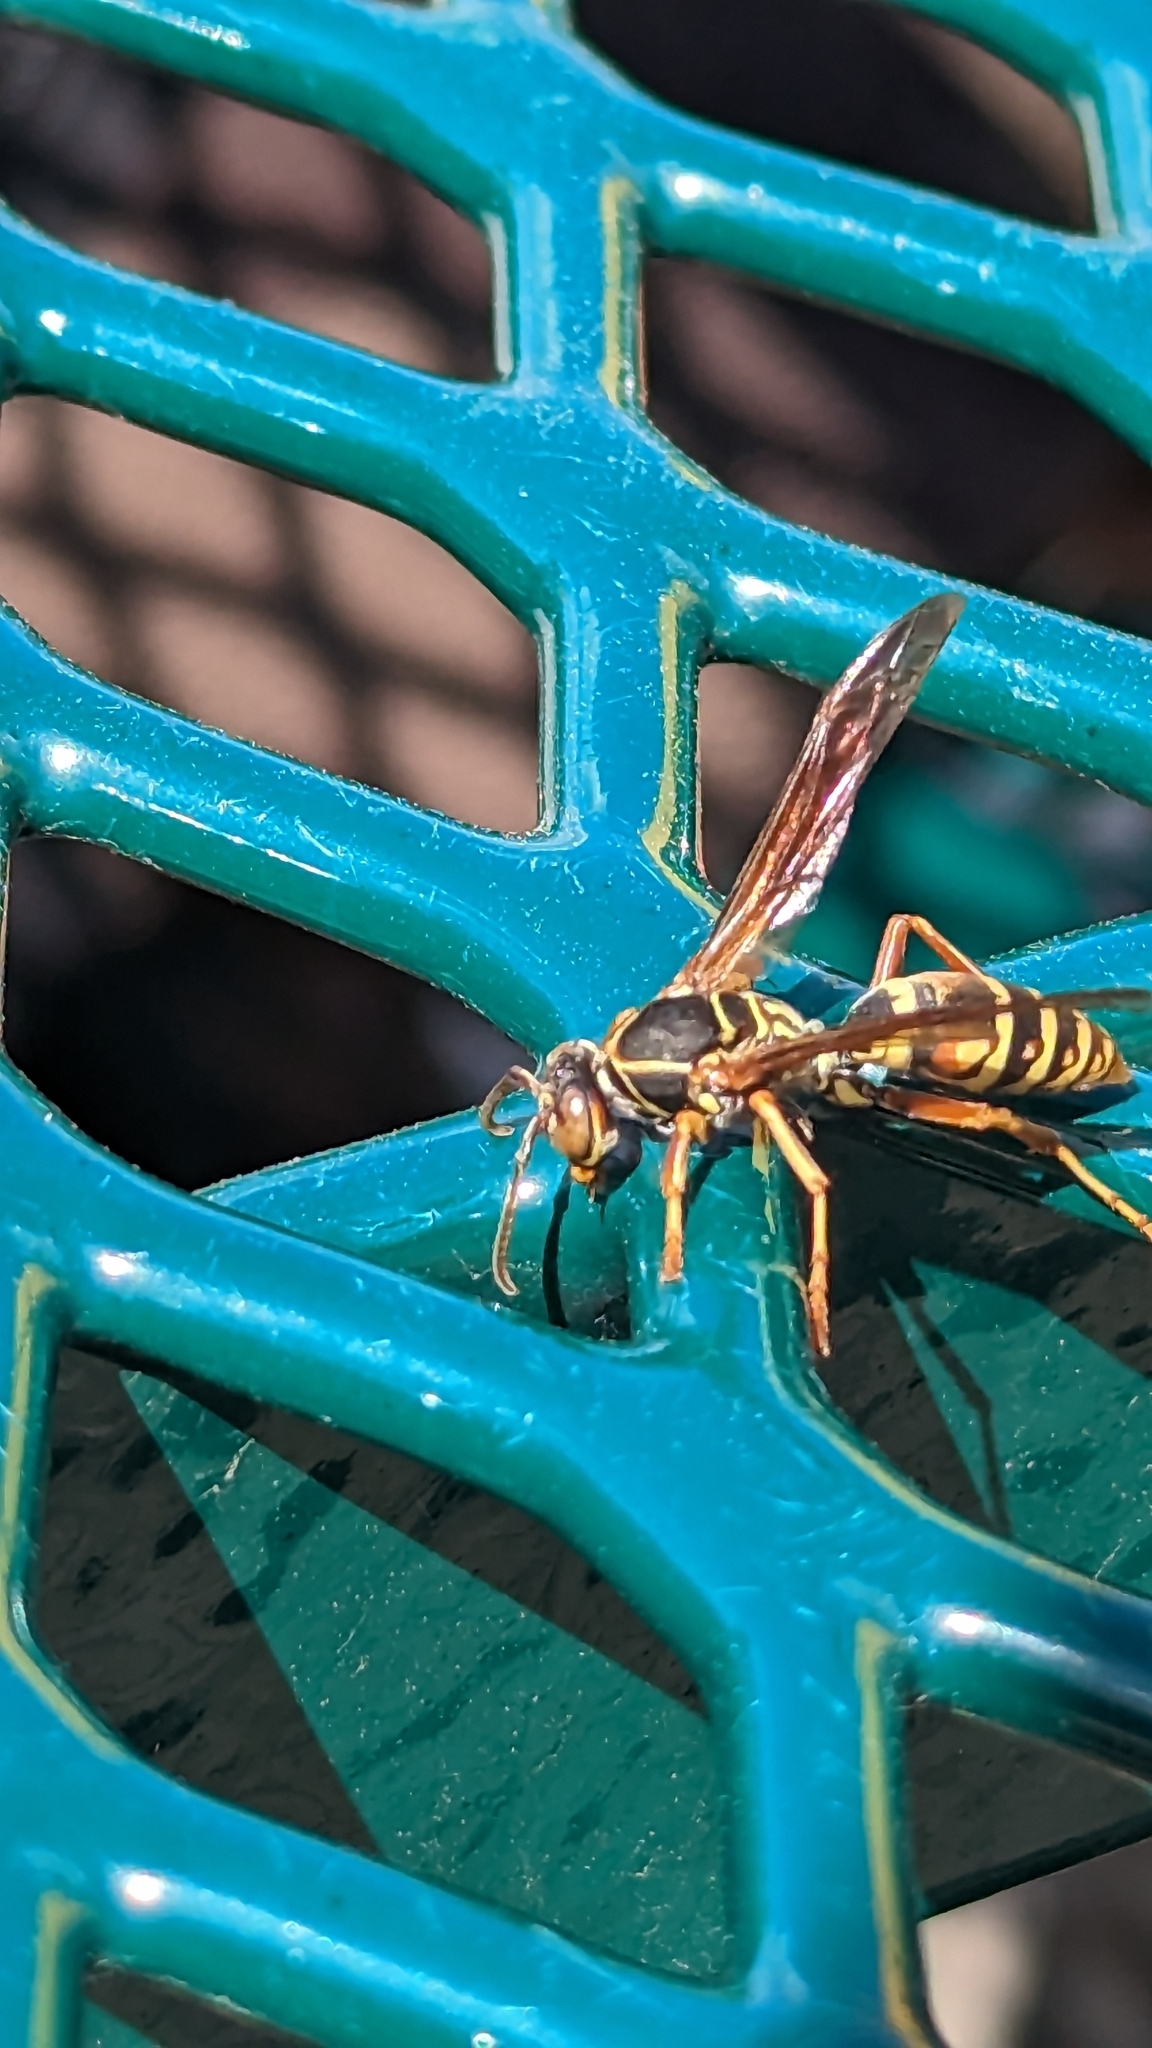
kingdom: Animalia
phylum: Arthropoda
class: Insecta
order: Hymenoptera
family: Eumenidae
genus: Polistes
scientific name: Polistes fuscatus
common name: Dark paper wasp
